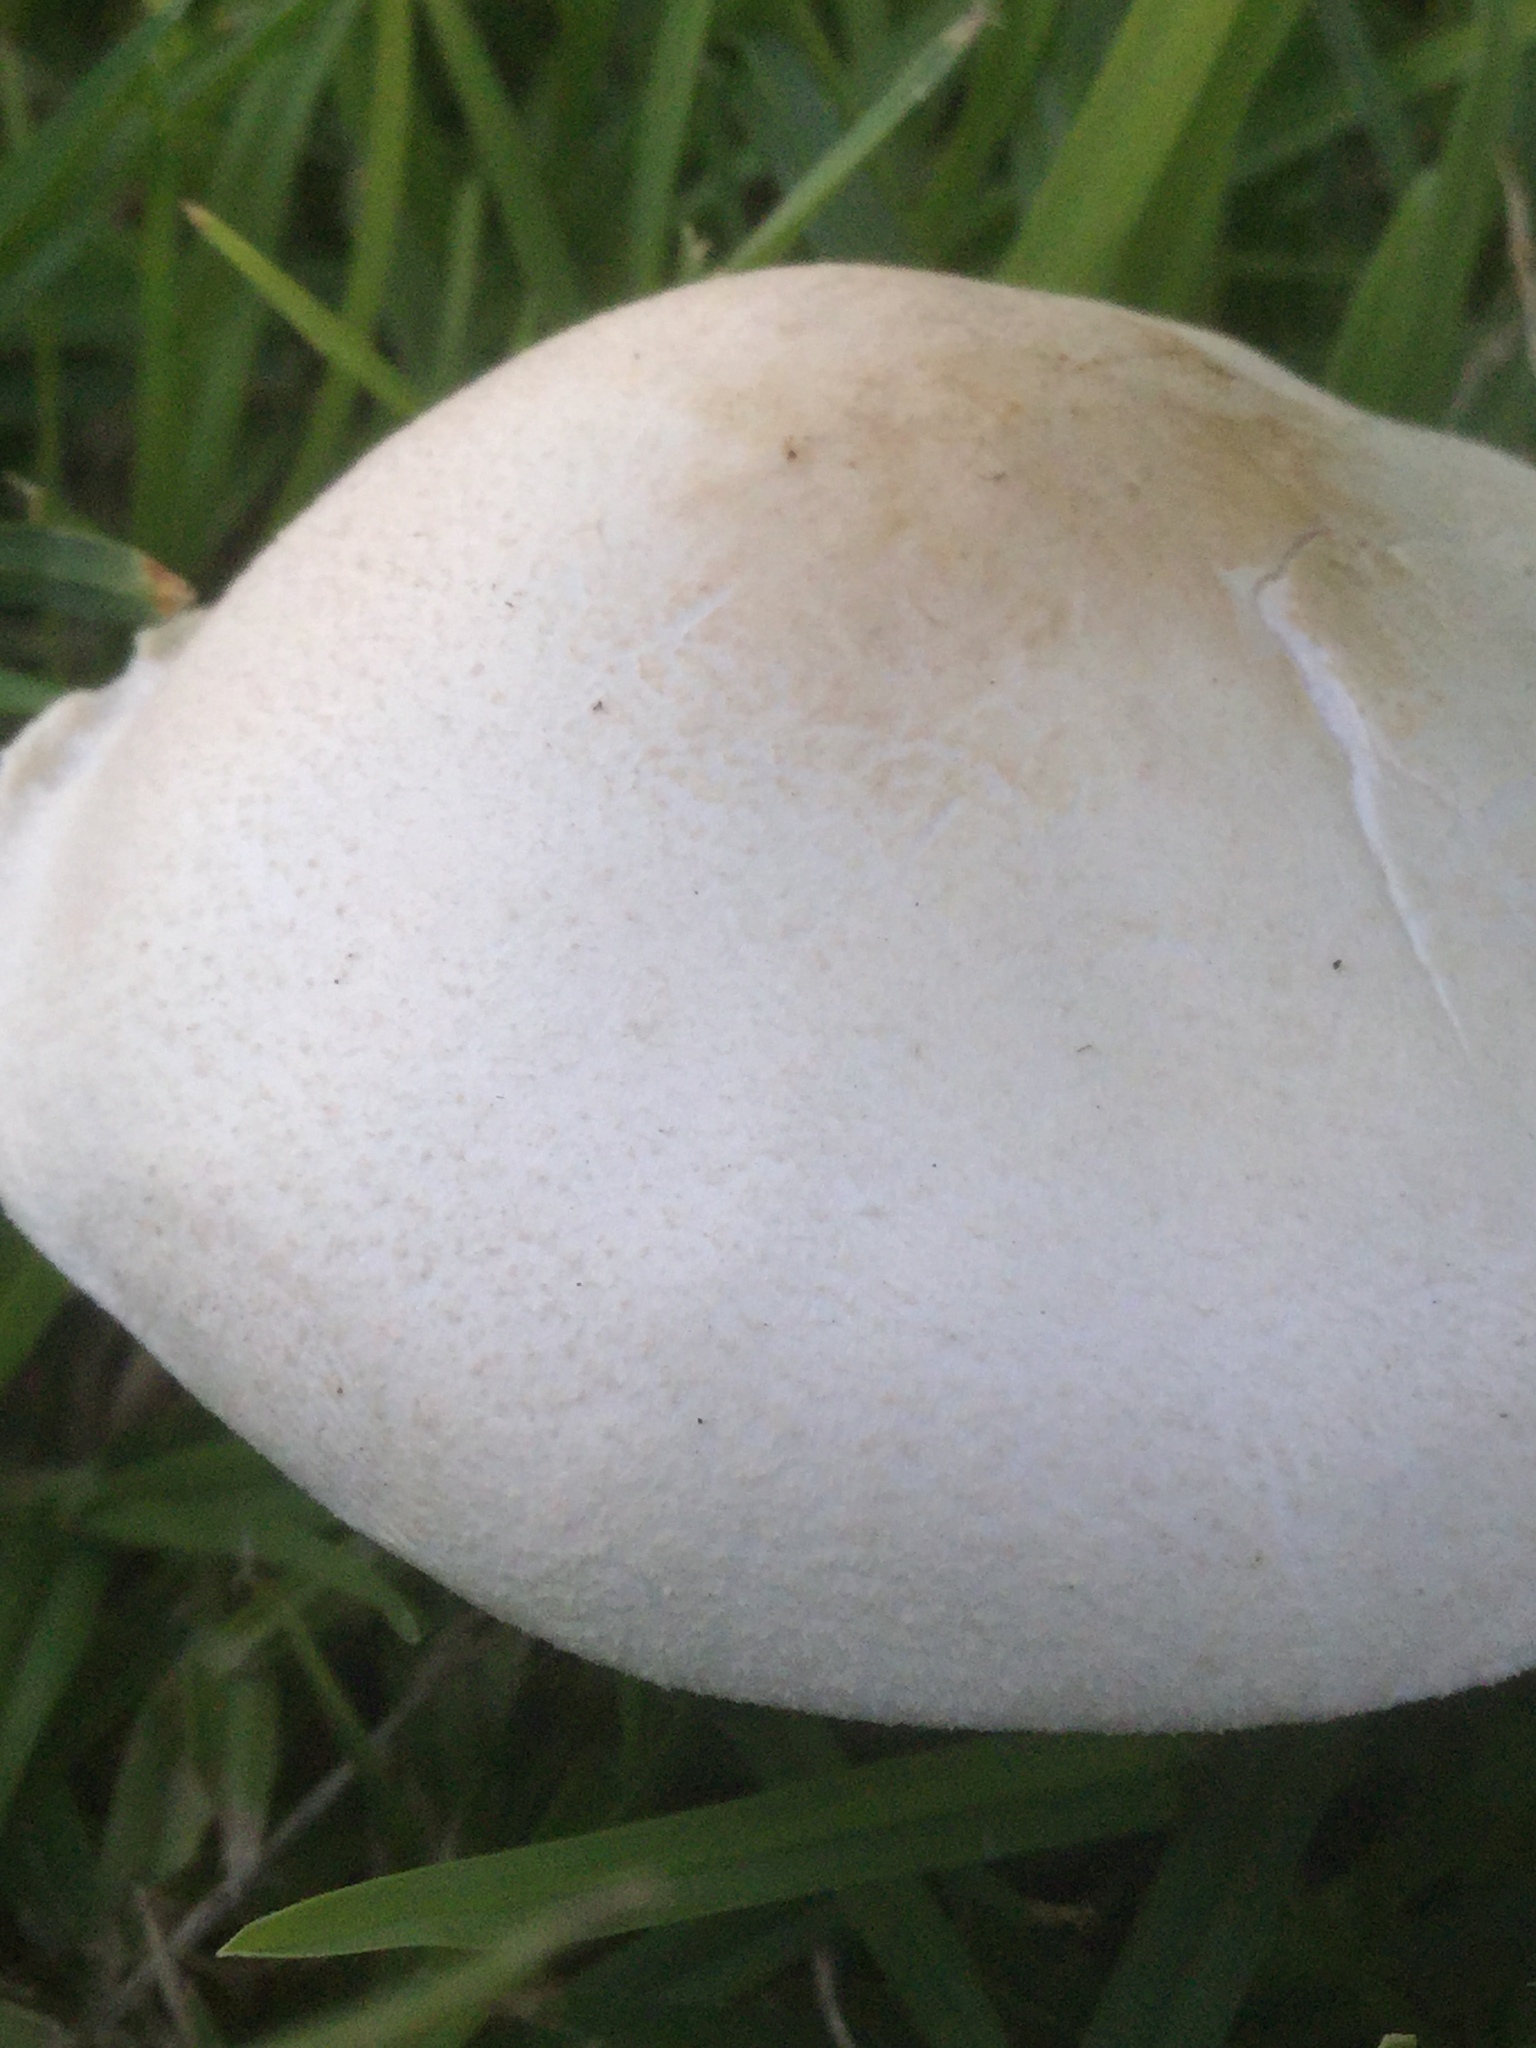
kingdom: Fungi
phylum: Basidiomycota
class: Agaricomycetes
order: Agaricales
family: Agaricaceae
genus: Leucoagaricus
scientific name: Leucoagaricus leucothites
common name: White dapperling
